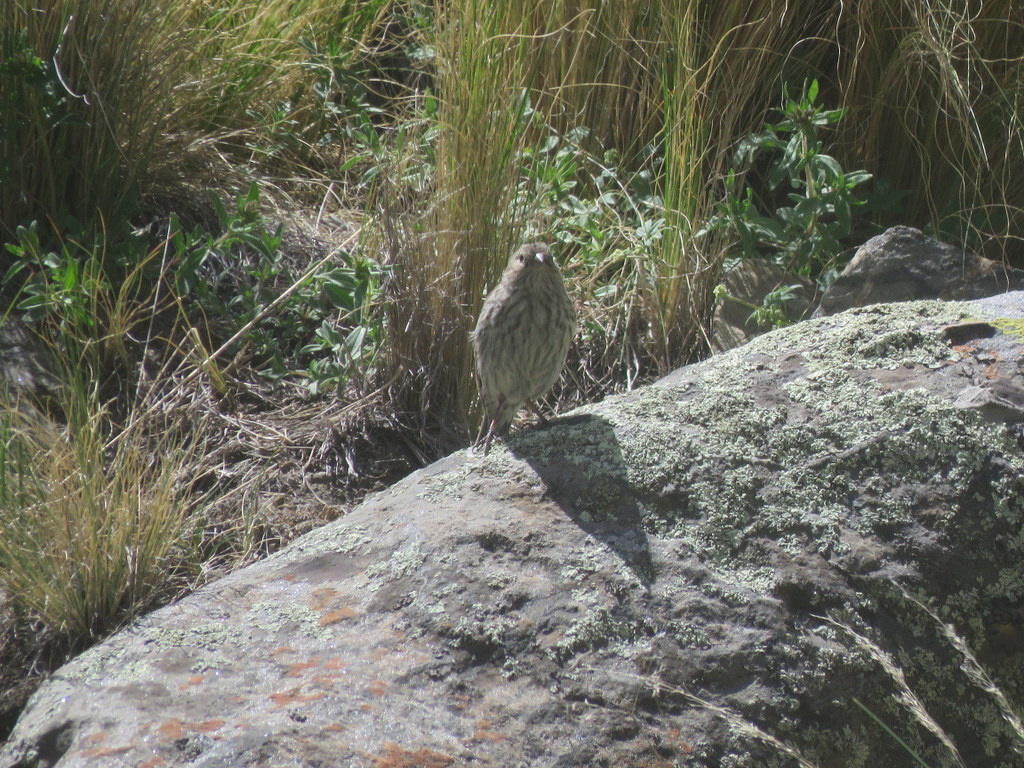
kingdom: Animalia
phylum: Chordata
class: Aves
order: Passeriformes
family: Thraupidae
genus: Geospizopsis
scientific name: Geospizopsis unicolor
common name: Plumbeous sierra-finch
